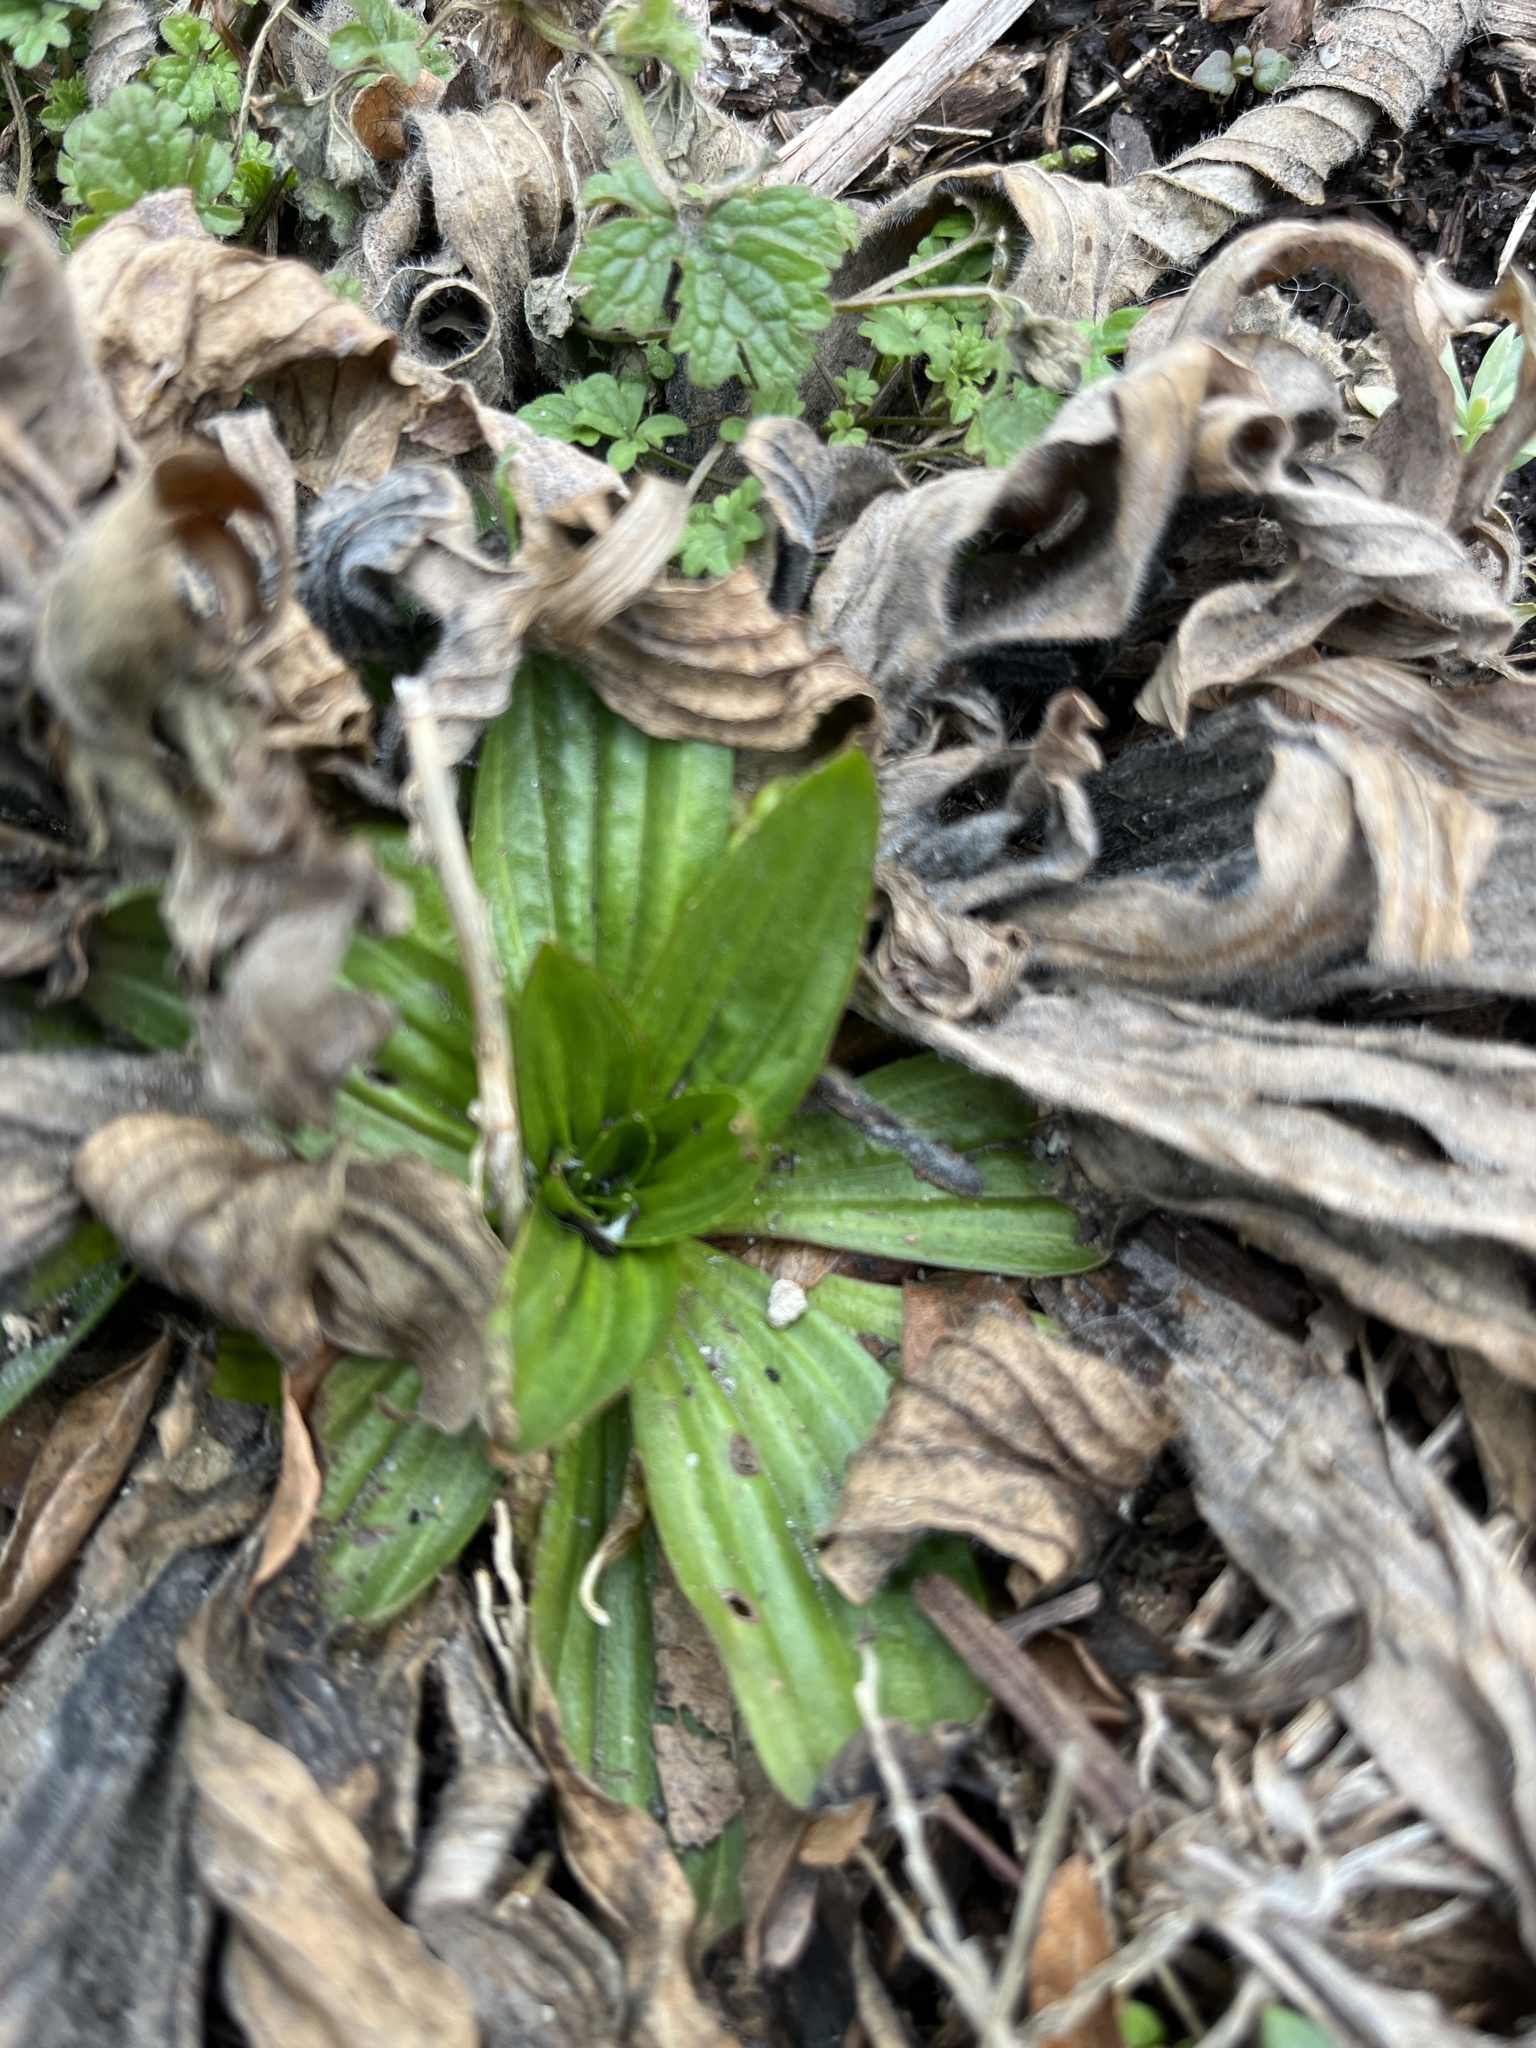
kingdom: Plantae
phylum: Tracheophyta
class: Magnoliopsida
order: Lamiales
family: Plantaginaceae
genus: Plantago
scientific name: Plantago lanceolata
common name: Ribwort plantain
